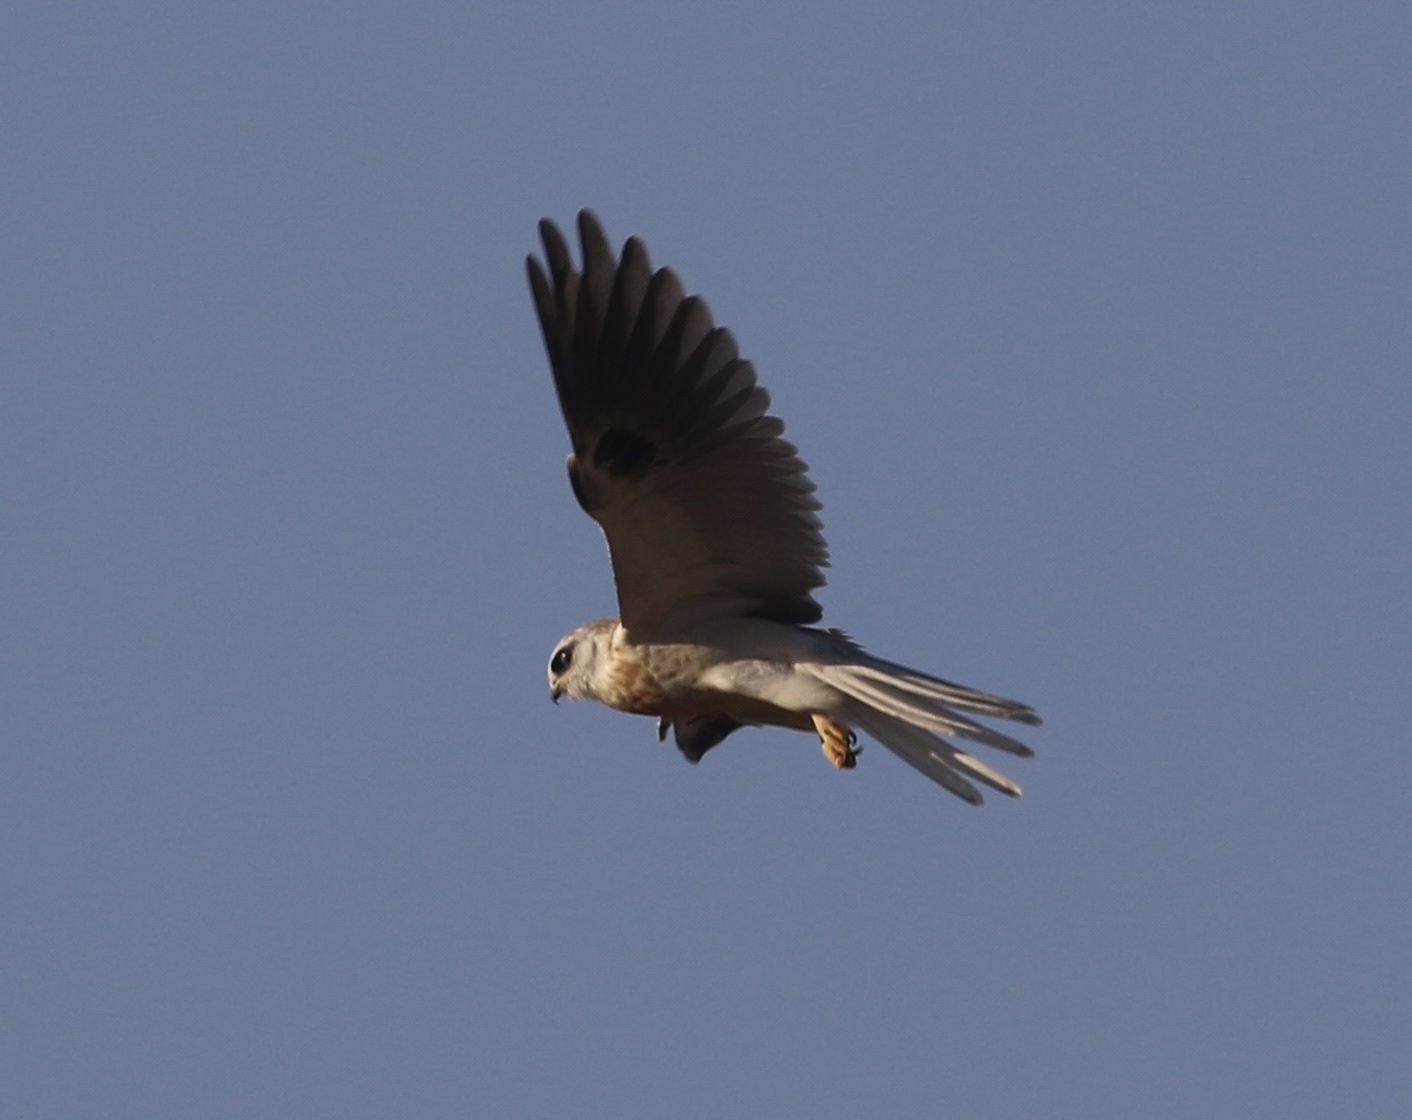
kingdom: Animalia
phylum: Chordata
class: Aves
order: Accipitriformes
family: Accipitridae
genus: Elanus
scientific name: Elanus leucurus
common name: White-tailed kite
